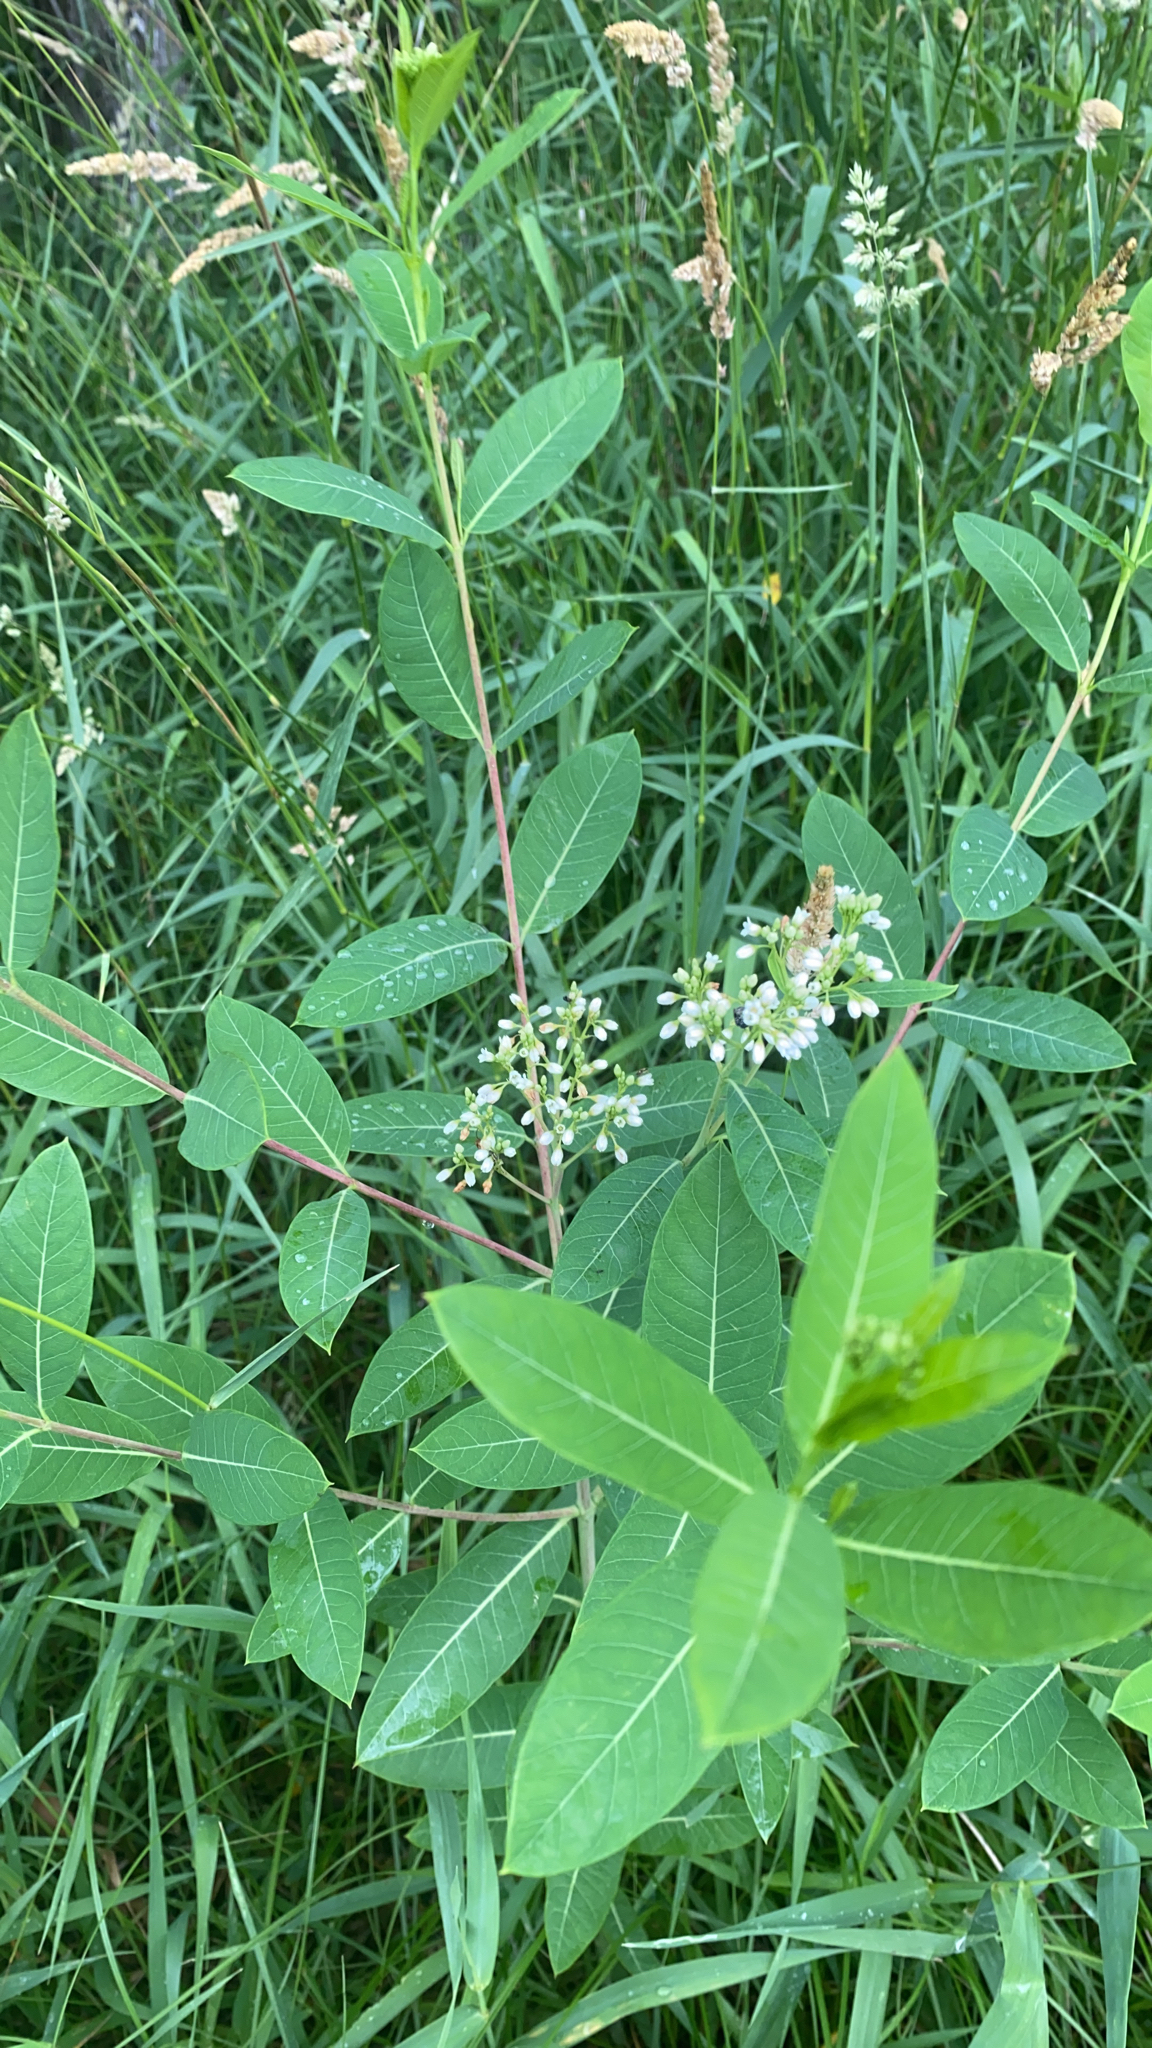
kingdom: Plantae
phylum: Tracheophyta
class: Magnoliopsida
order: Gentianales
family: Apocynaceae
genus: Apocynum
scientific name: Apocynum cannabinum
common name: Hemp dogbane
